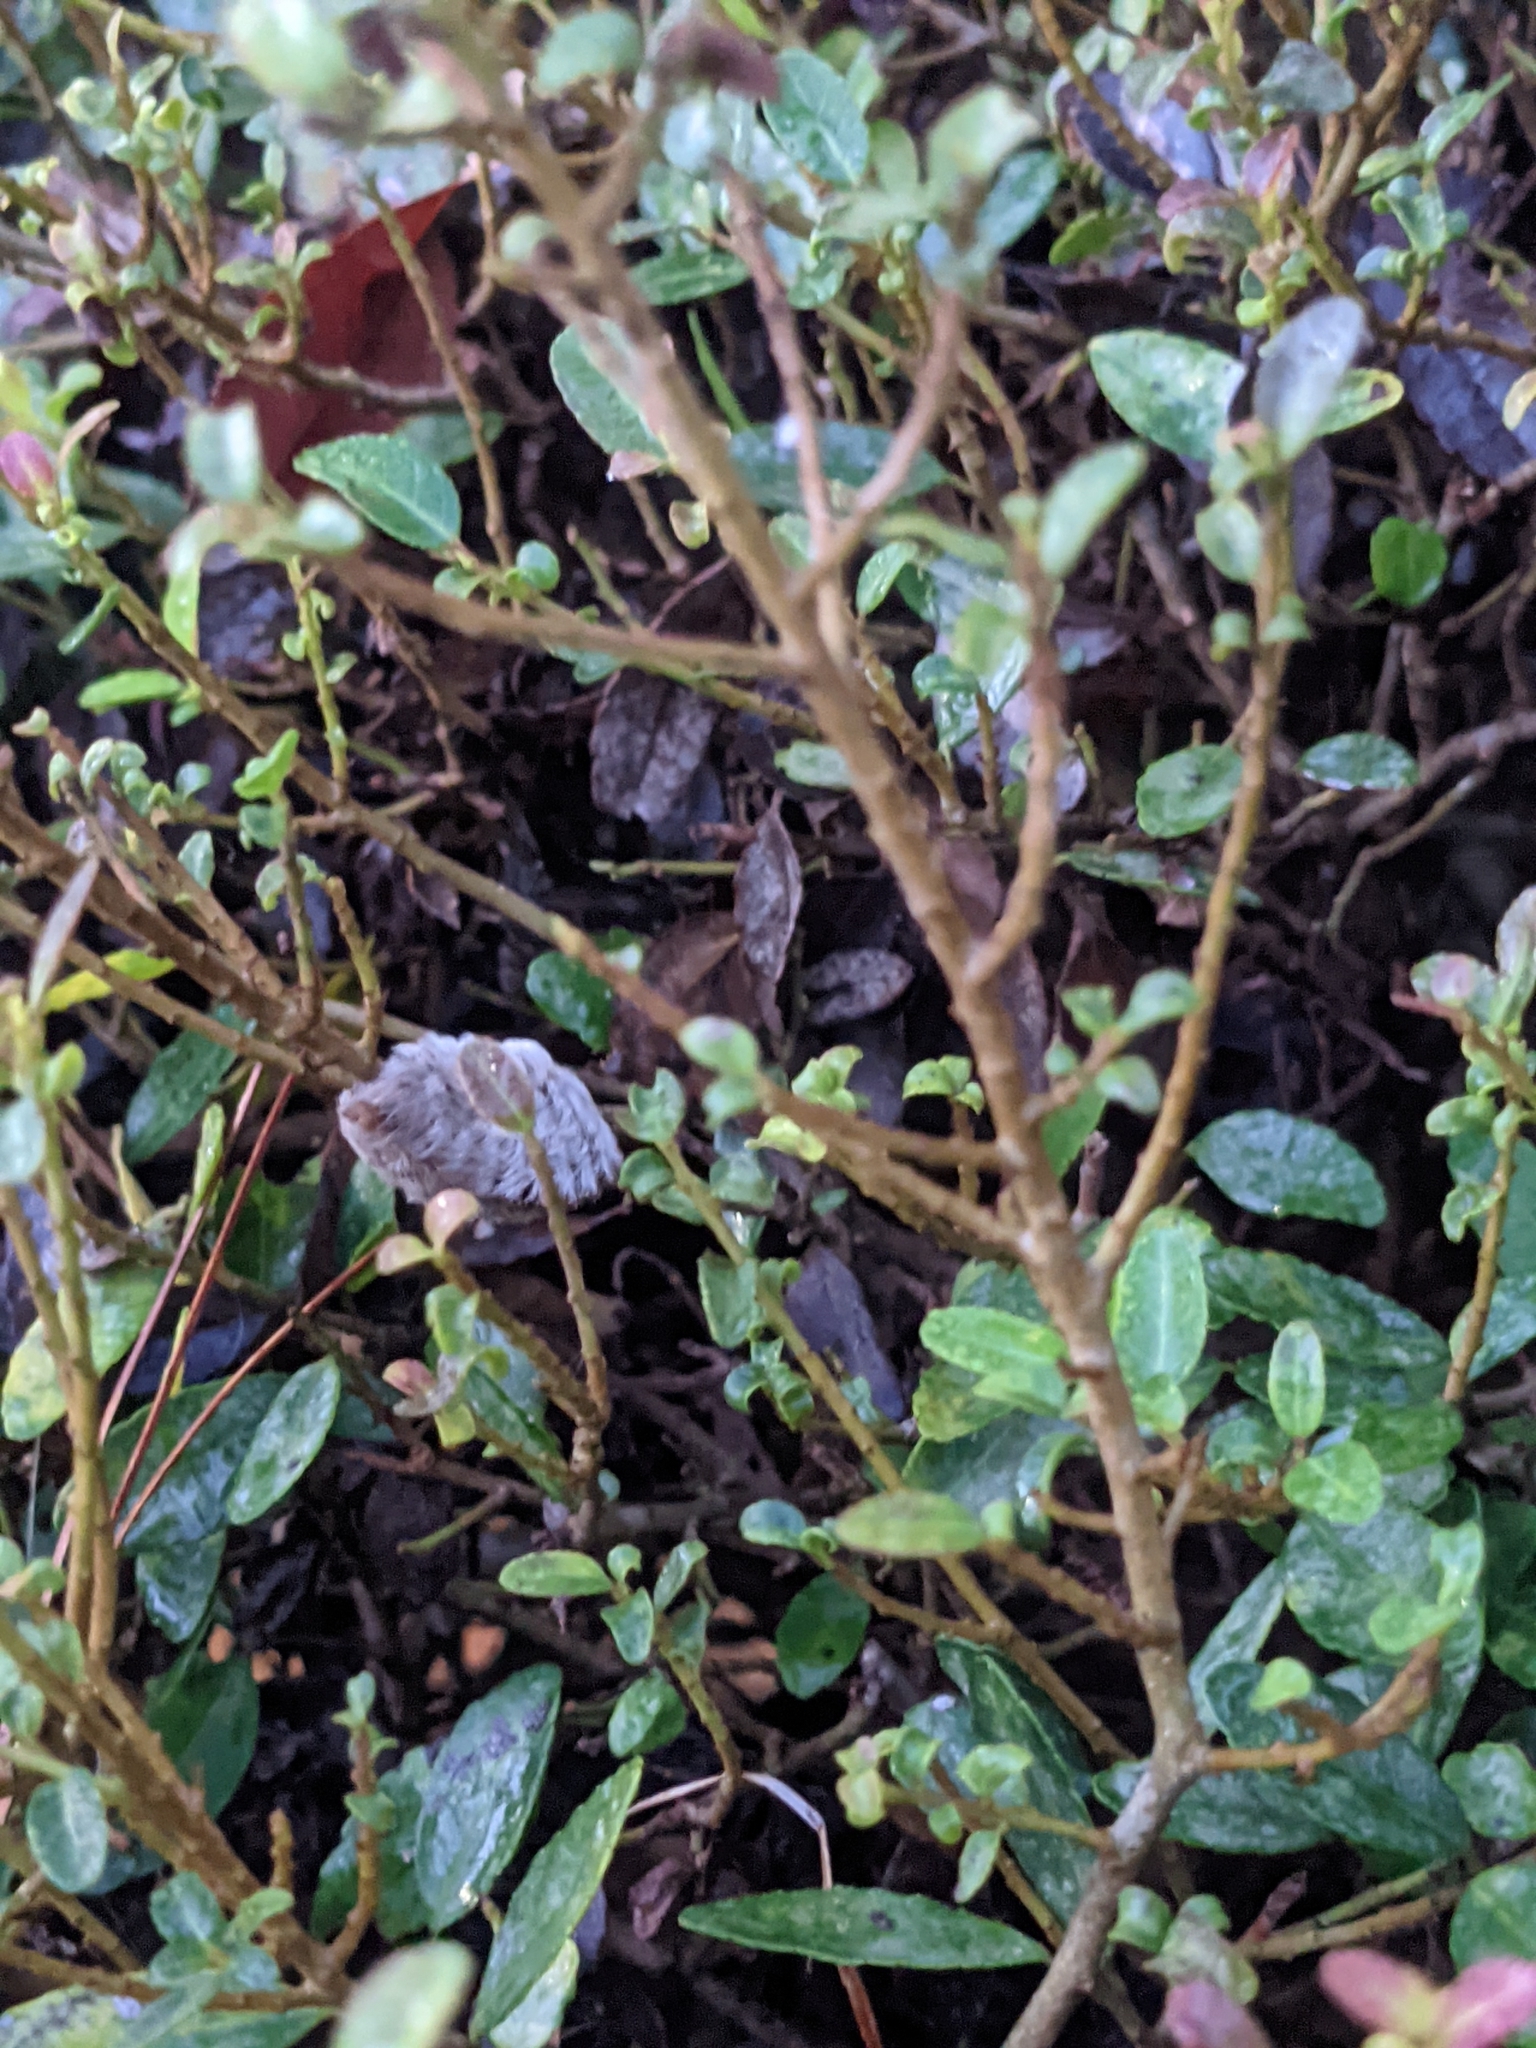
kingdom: Animalia
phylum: Arthropoda
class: Insecta
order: Lepidoptera
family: Megalopygidae
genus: Megalopyge
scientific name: Megalopyge opercularis
